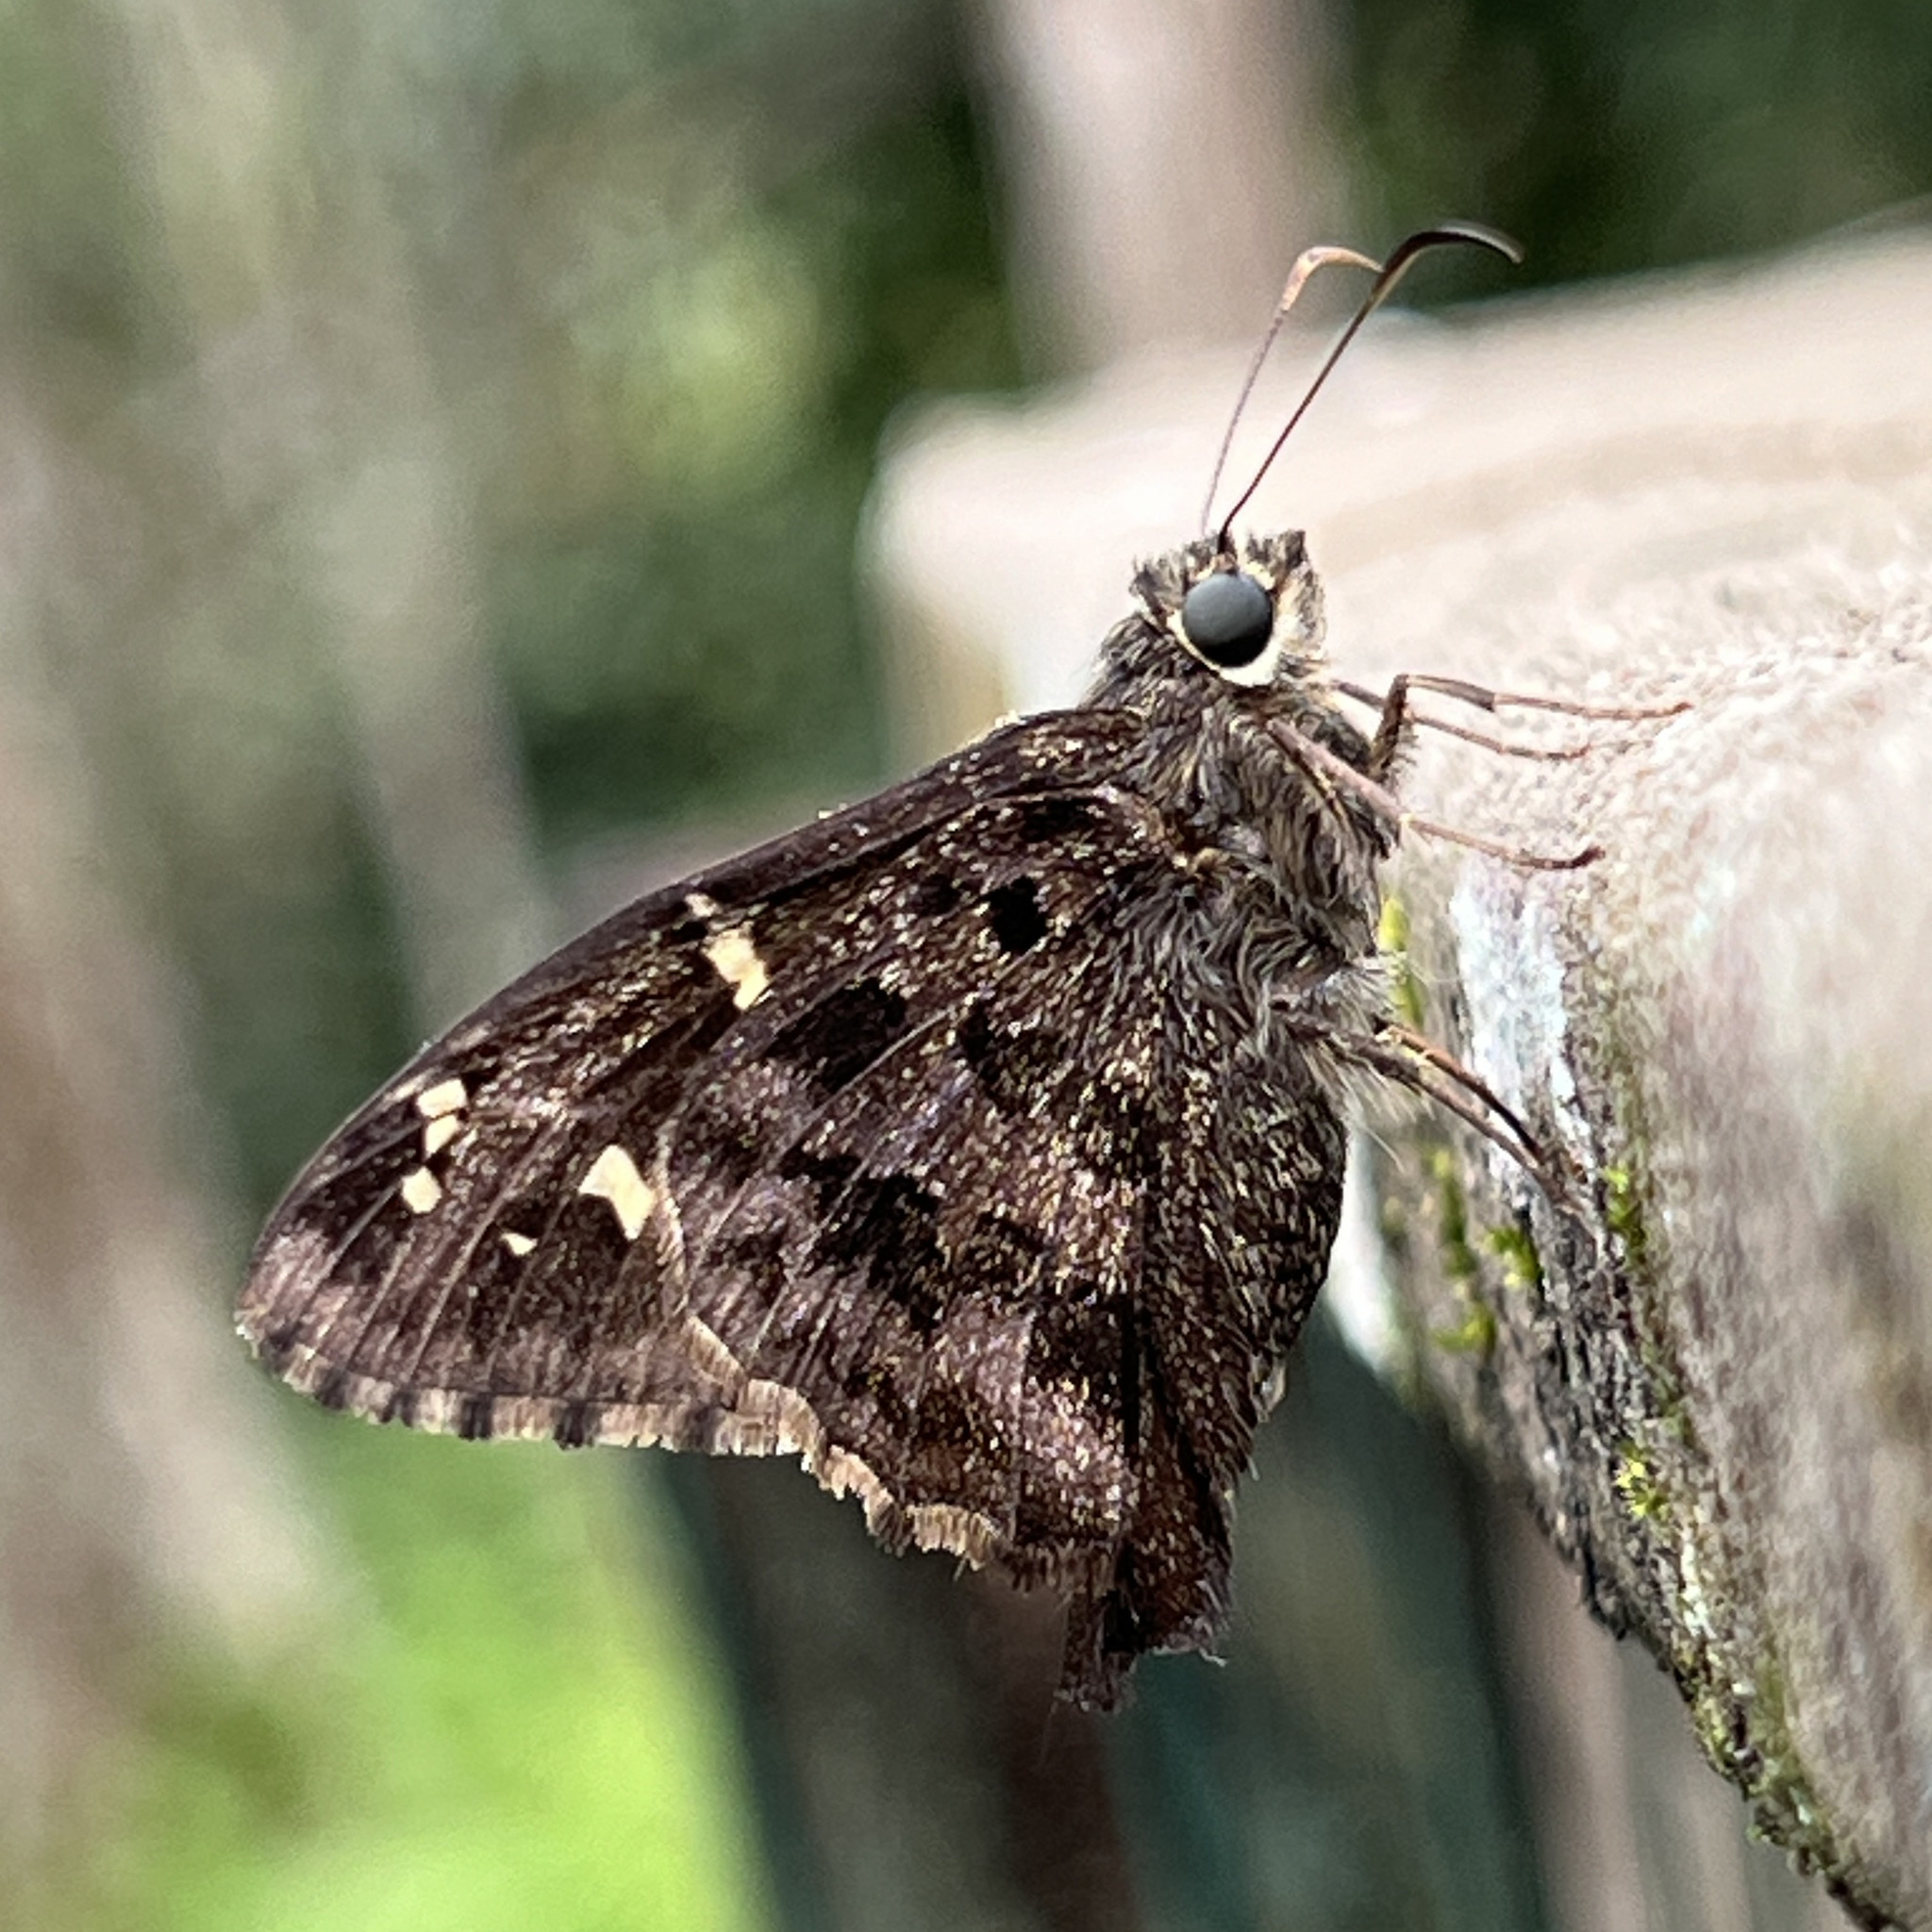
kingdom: Animalia
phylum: Arthropoda
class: Insecta
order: Lepidoptera
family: Hesperiidae
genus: Thorybes
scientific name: Thorybes
